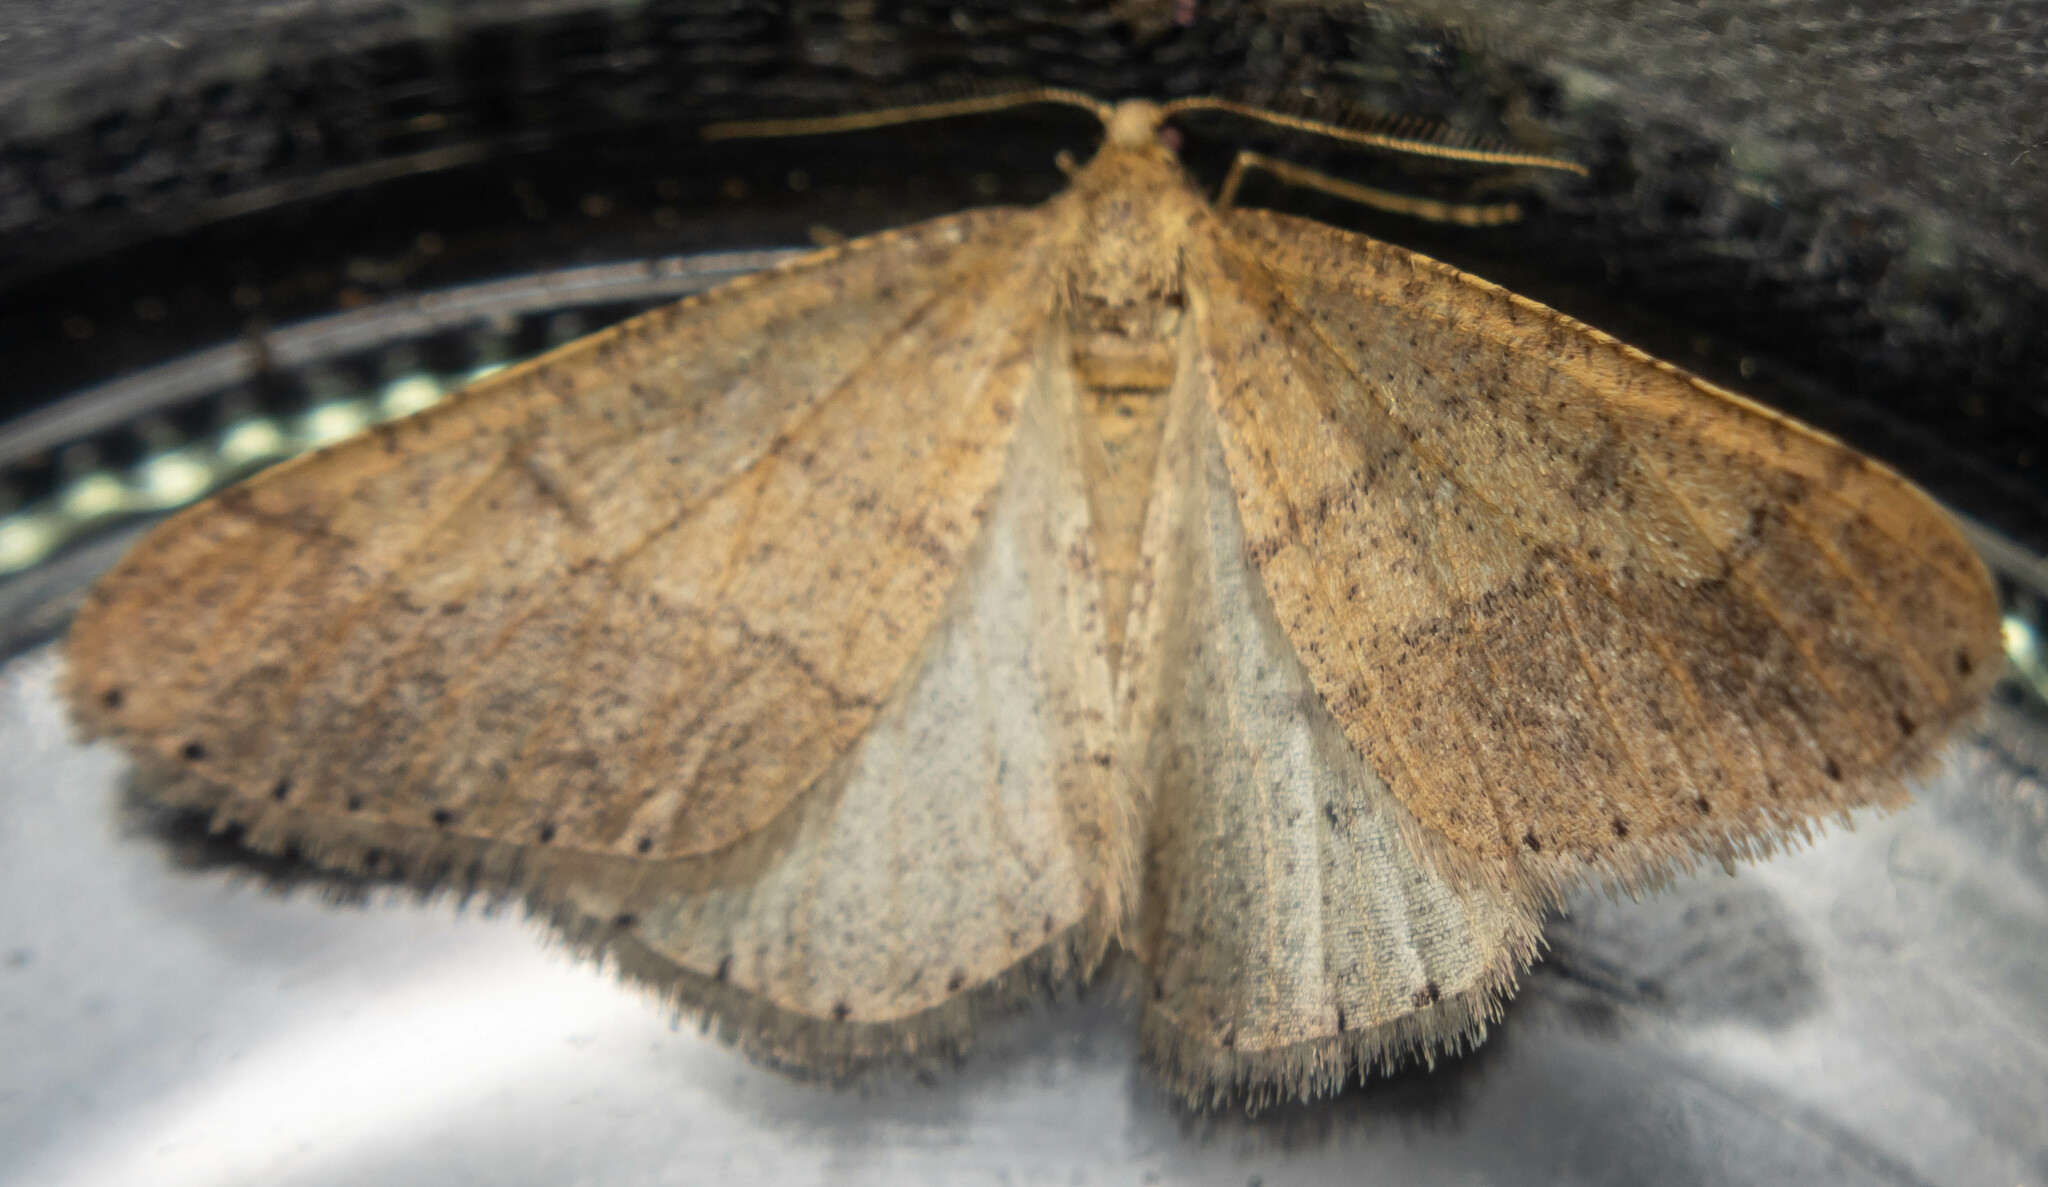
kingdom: Animalia
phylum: Arthropoda
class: Insecta
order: Lepidoptera
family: Geometridae
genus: Agriopis
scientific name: Agriopis marginaria
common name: Dotted border
